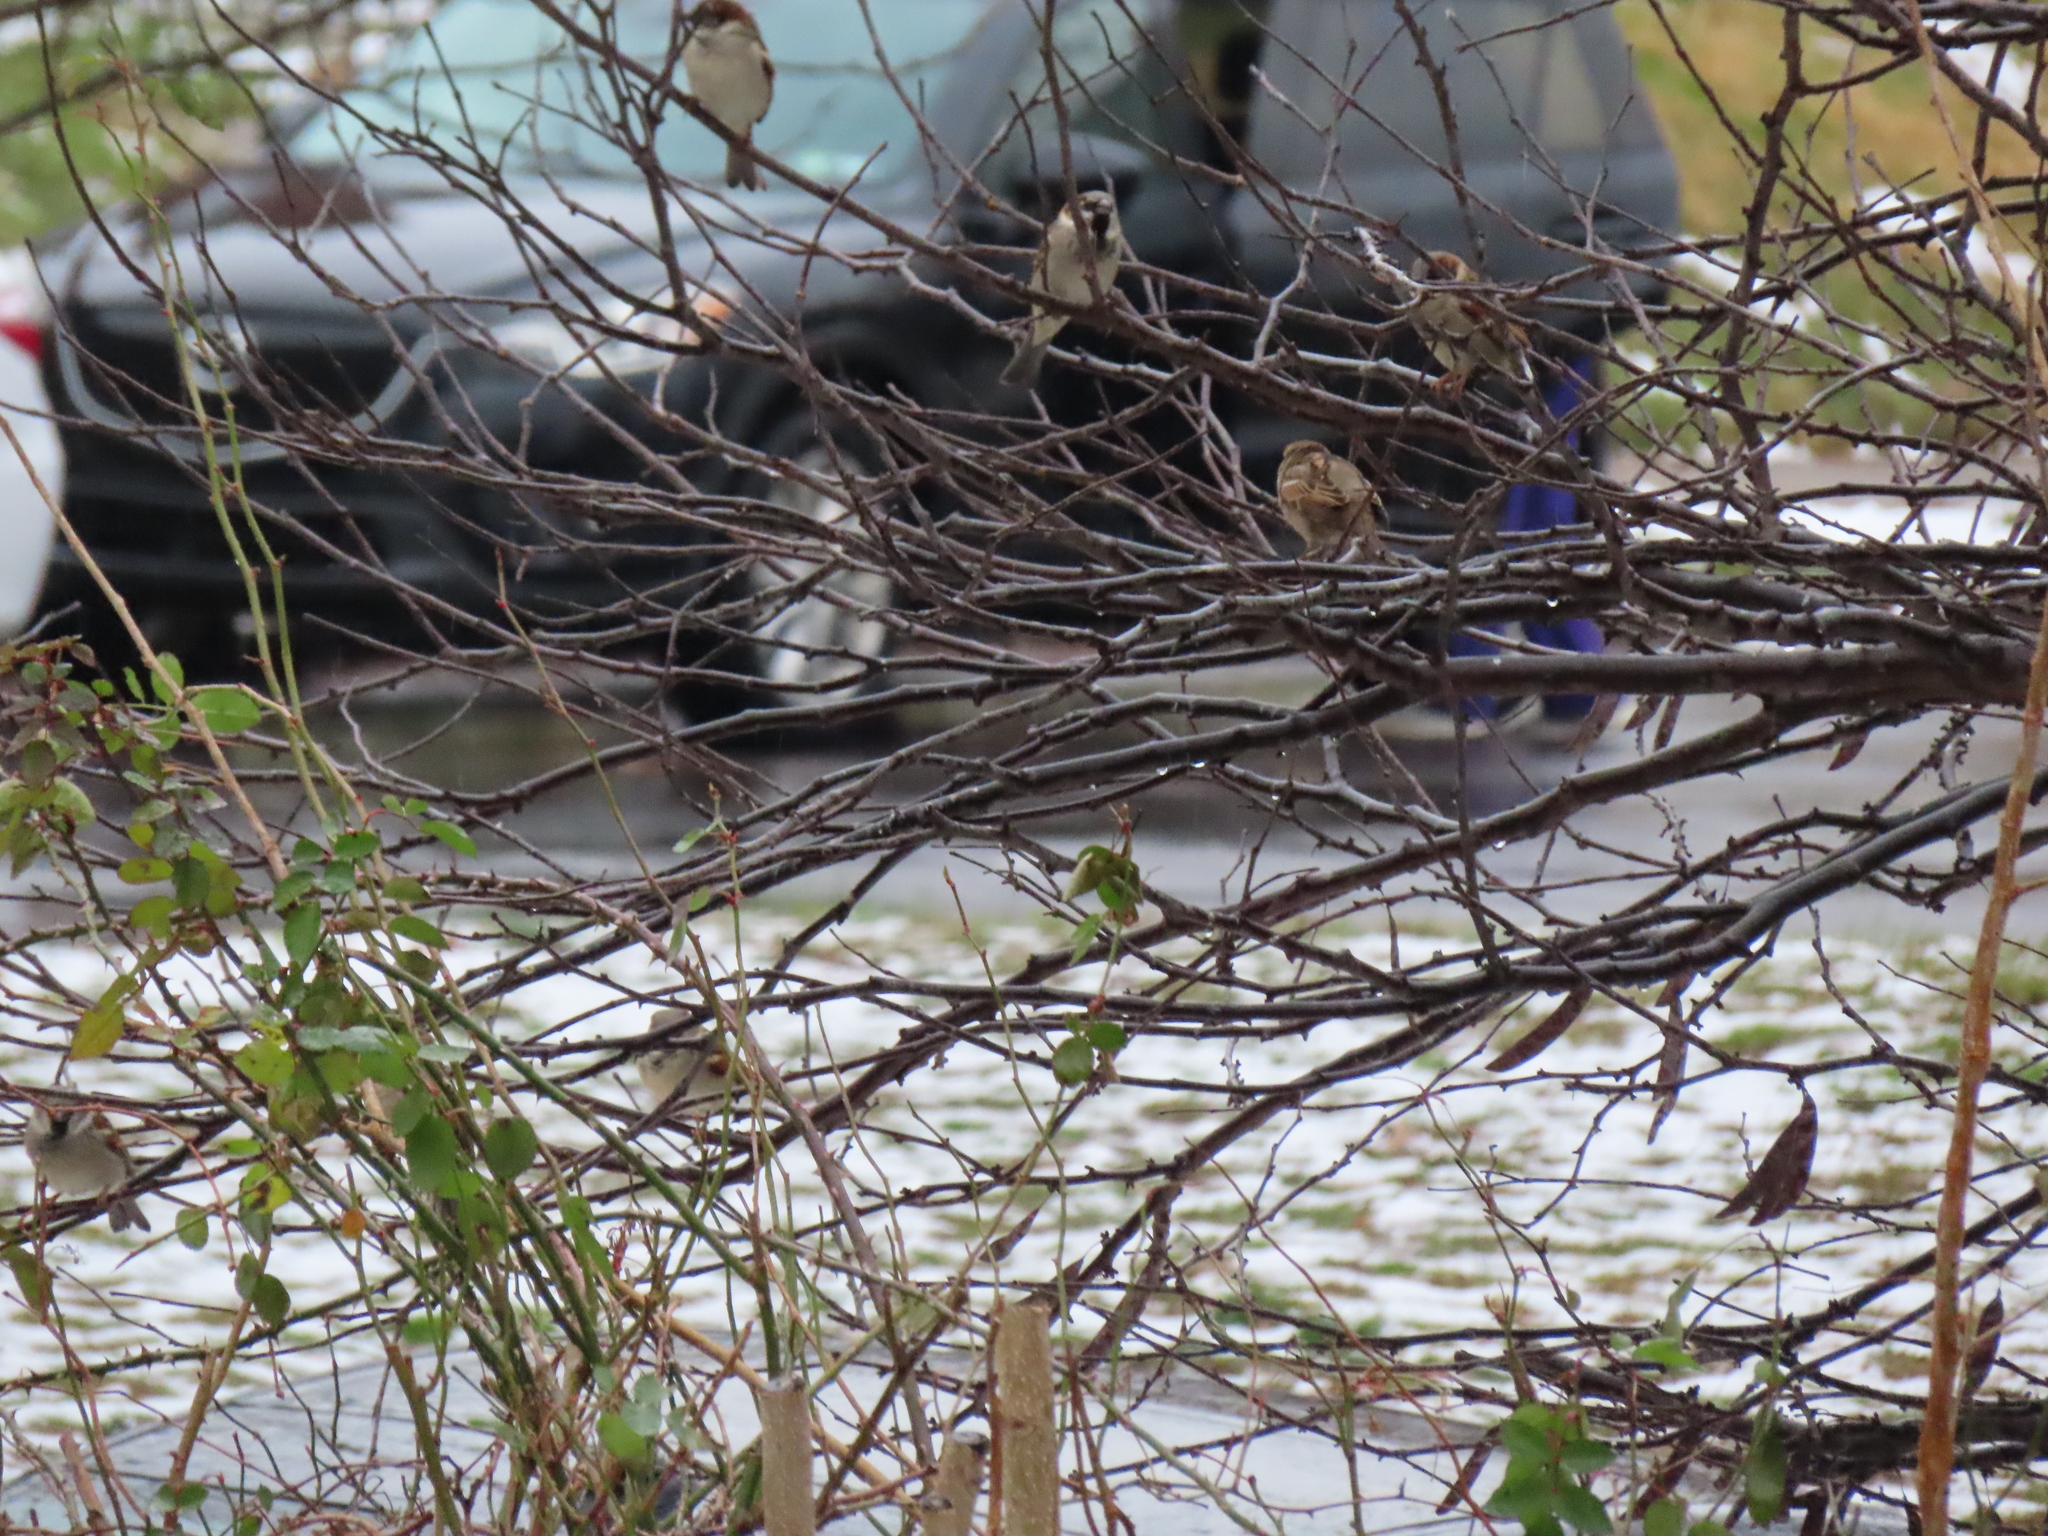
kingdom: Animalia
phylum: Chordata
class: Aves
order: Passeriformes
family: Passeridae
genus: Passer
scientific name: Passer domesticus
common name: House sparrow
